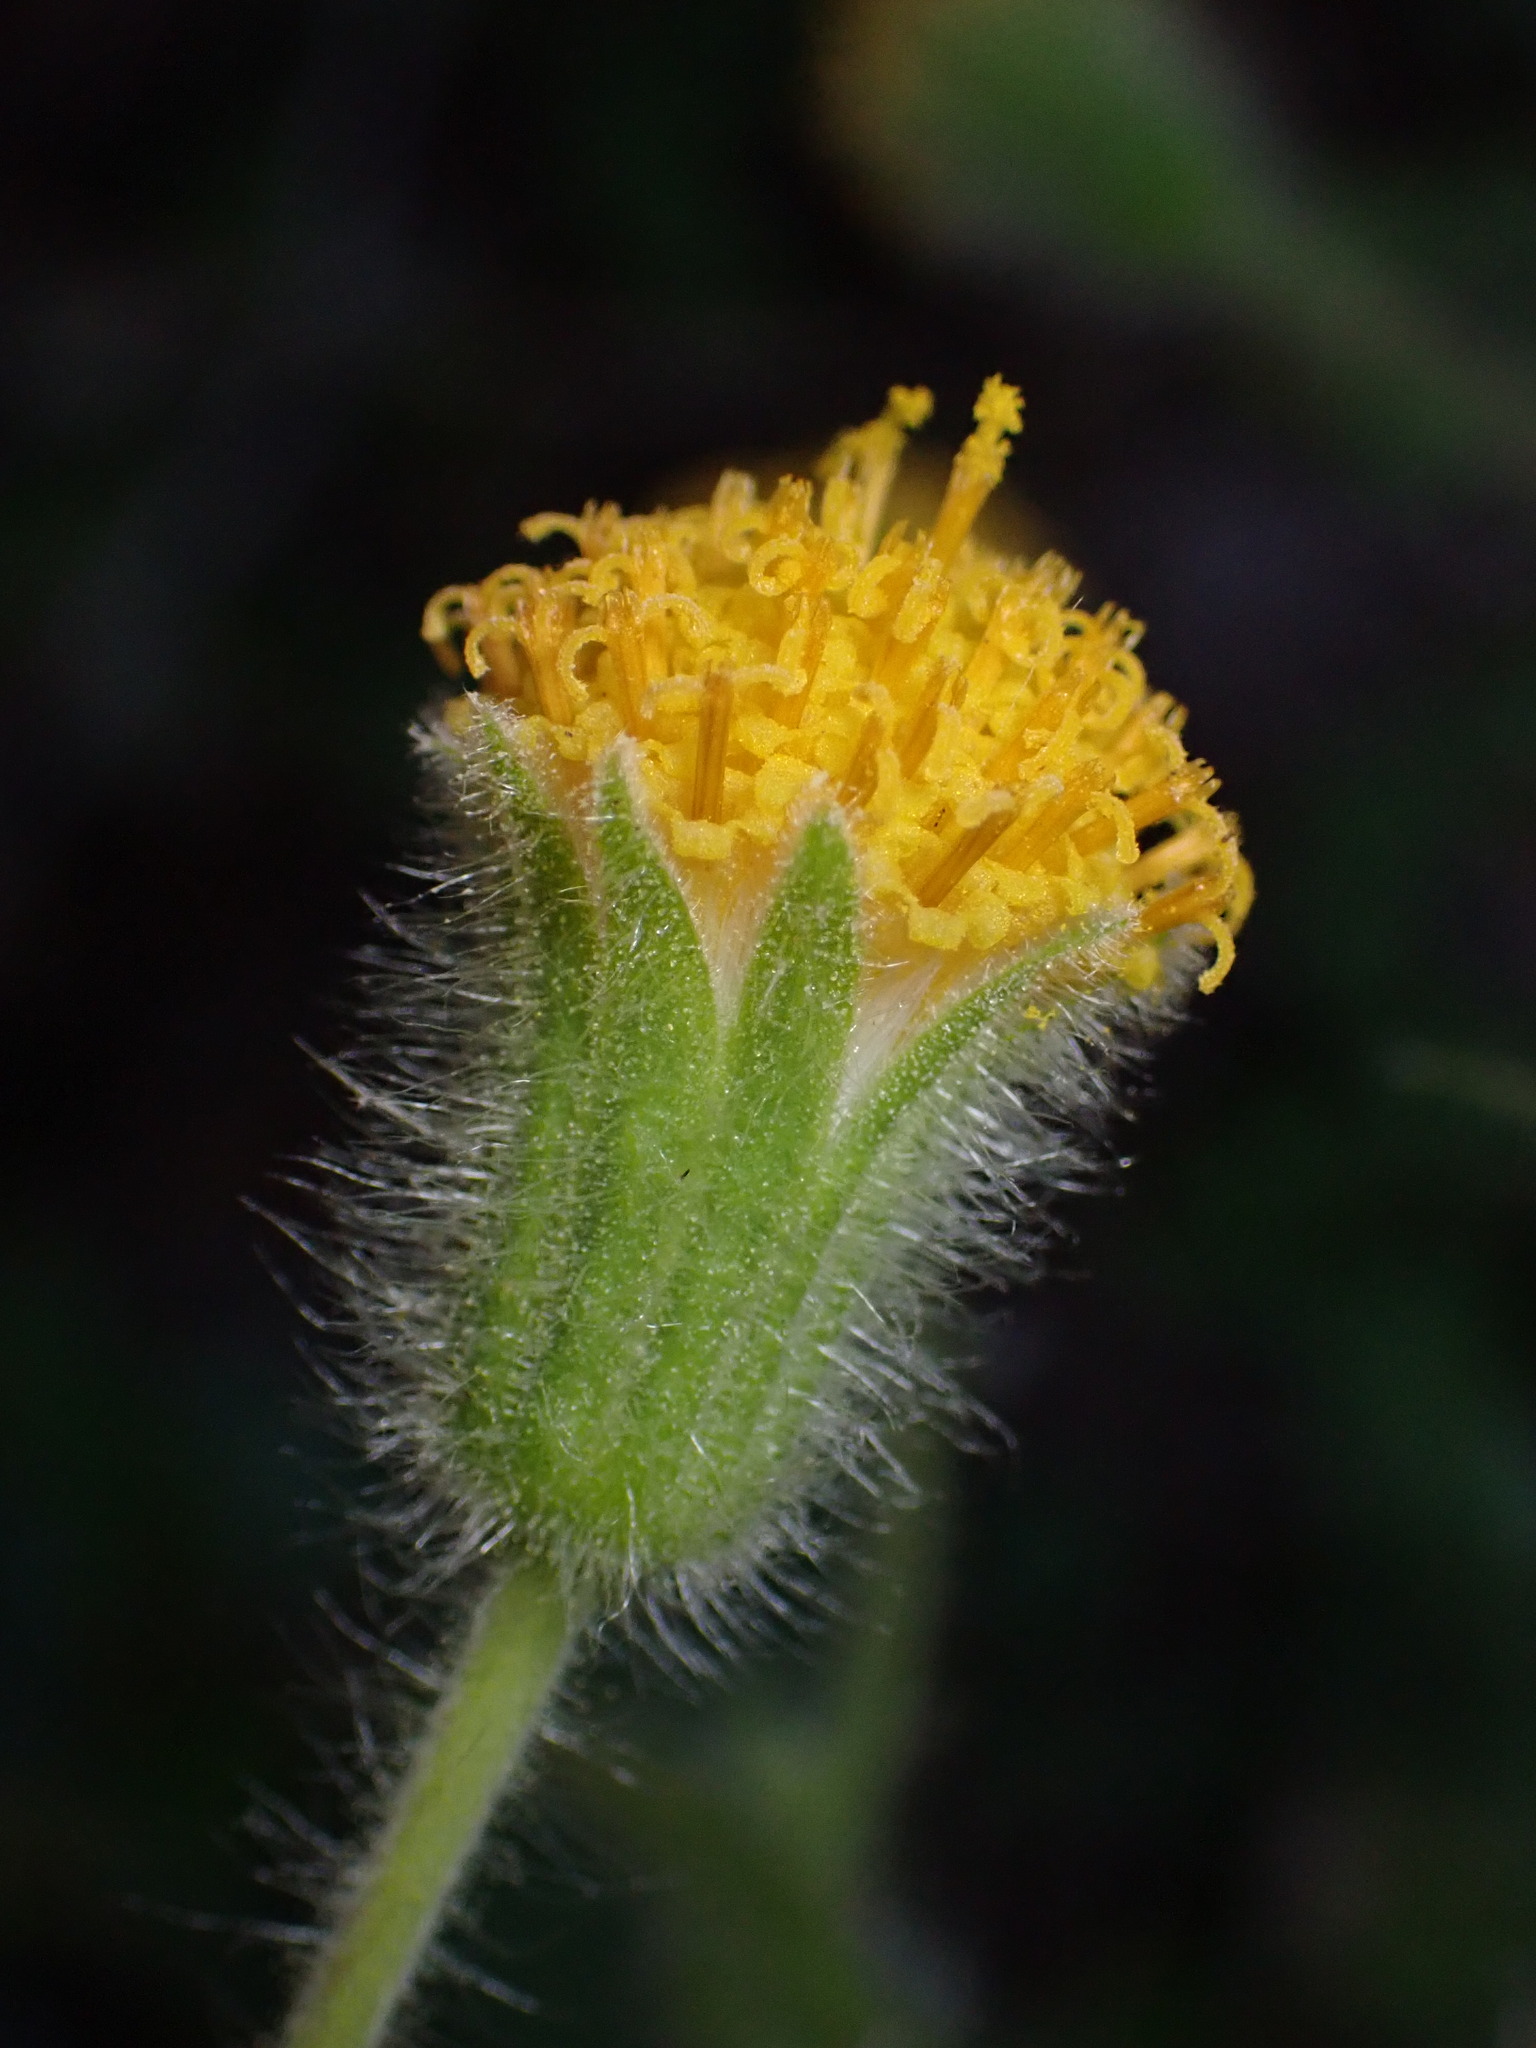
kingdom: Plantae
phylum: Tracheophyta
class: Magnoliopsida
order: Asterales
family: Asteraceae
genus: Arnica
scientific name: Arnica discoidea
